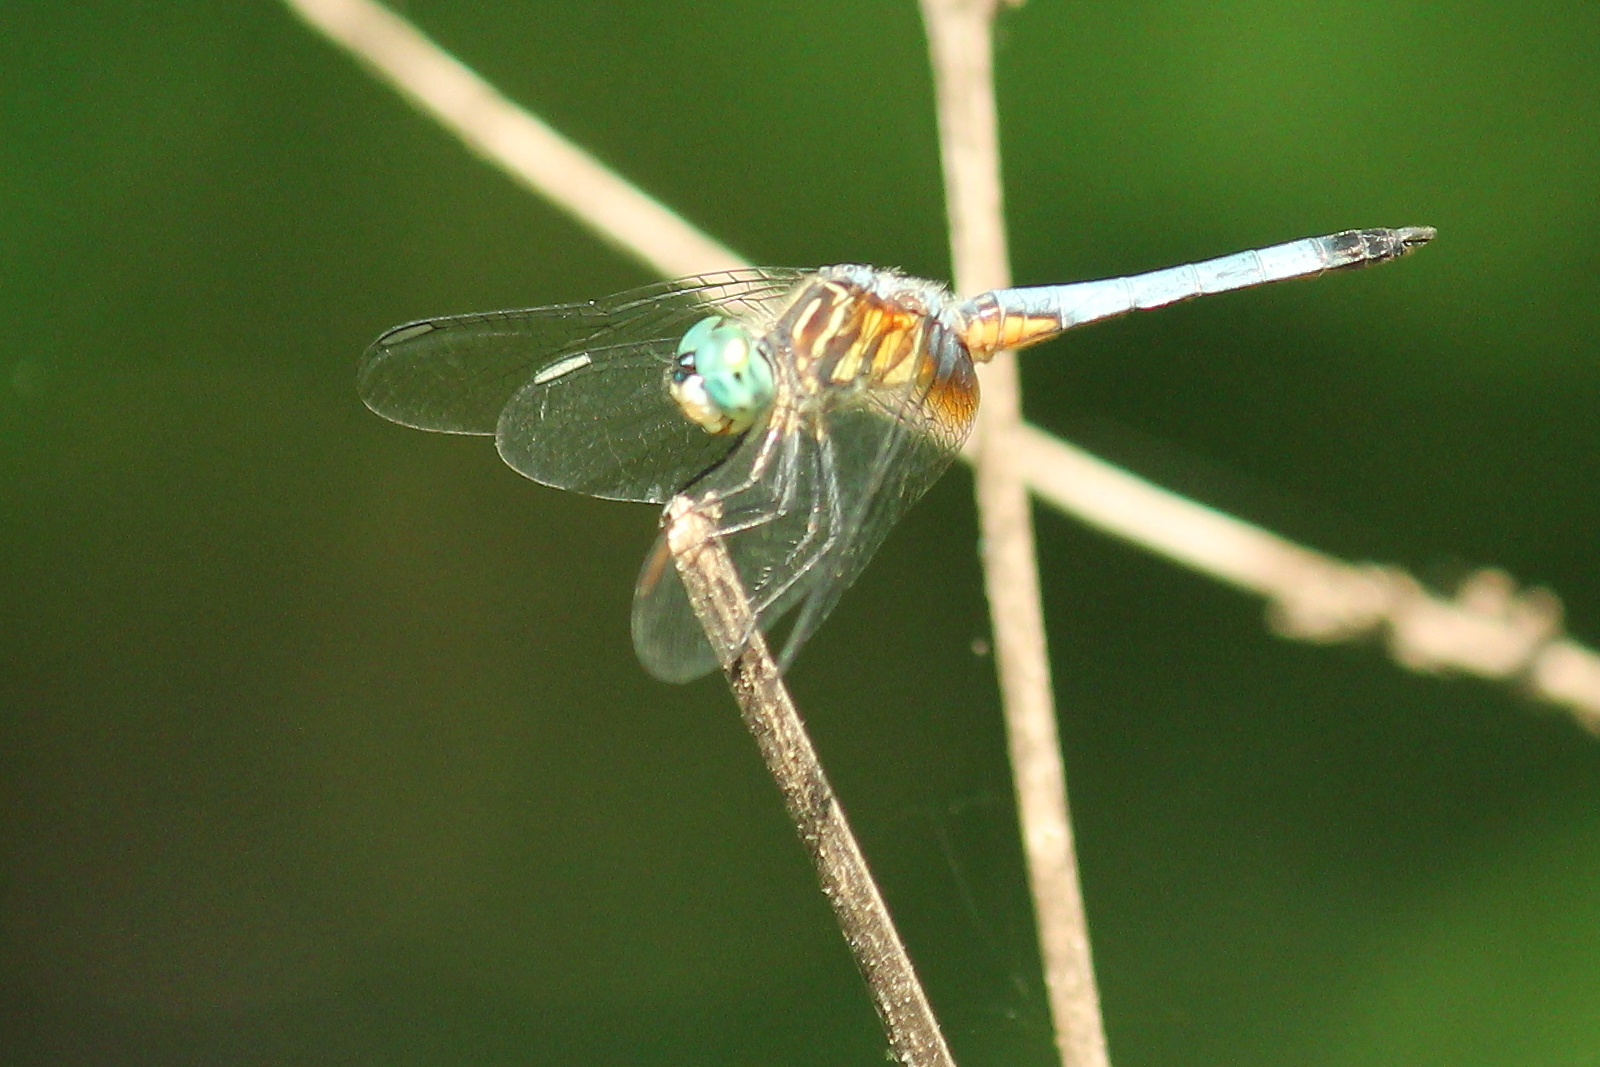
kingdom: Animalia
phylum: Arthropoda
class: Insecta
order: Odonata
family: Libellulidae
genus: Pachydiplax
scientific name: Pachydiplax longipennis
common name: Blue dasher
